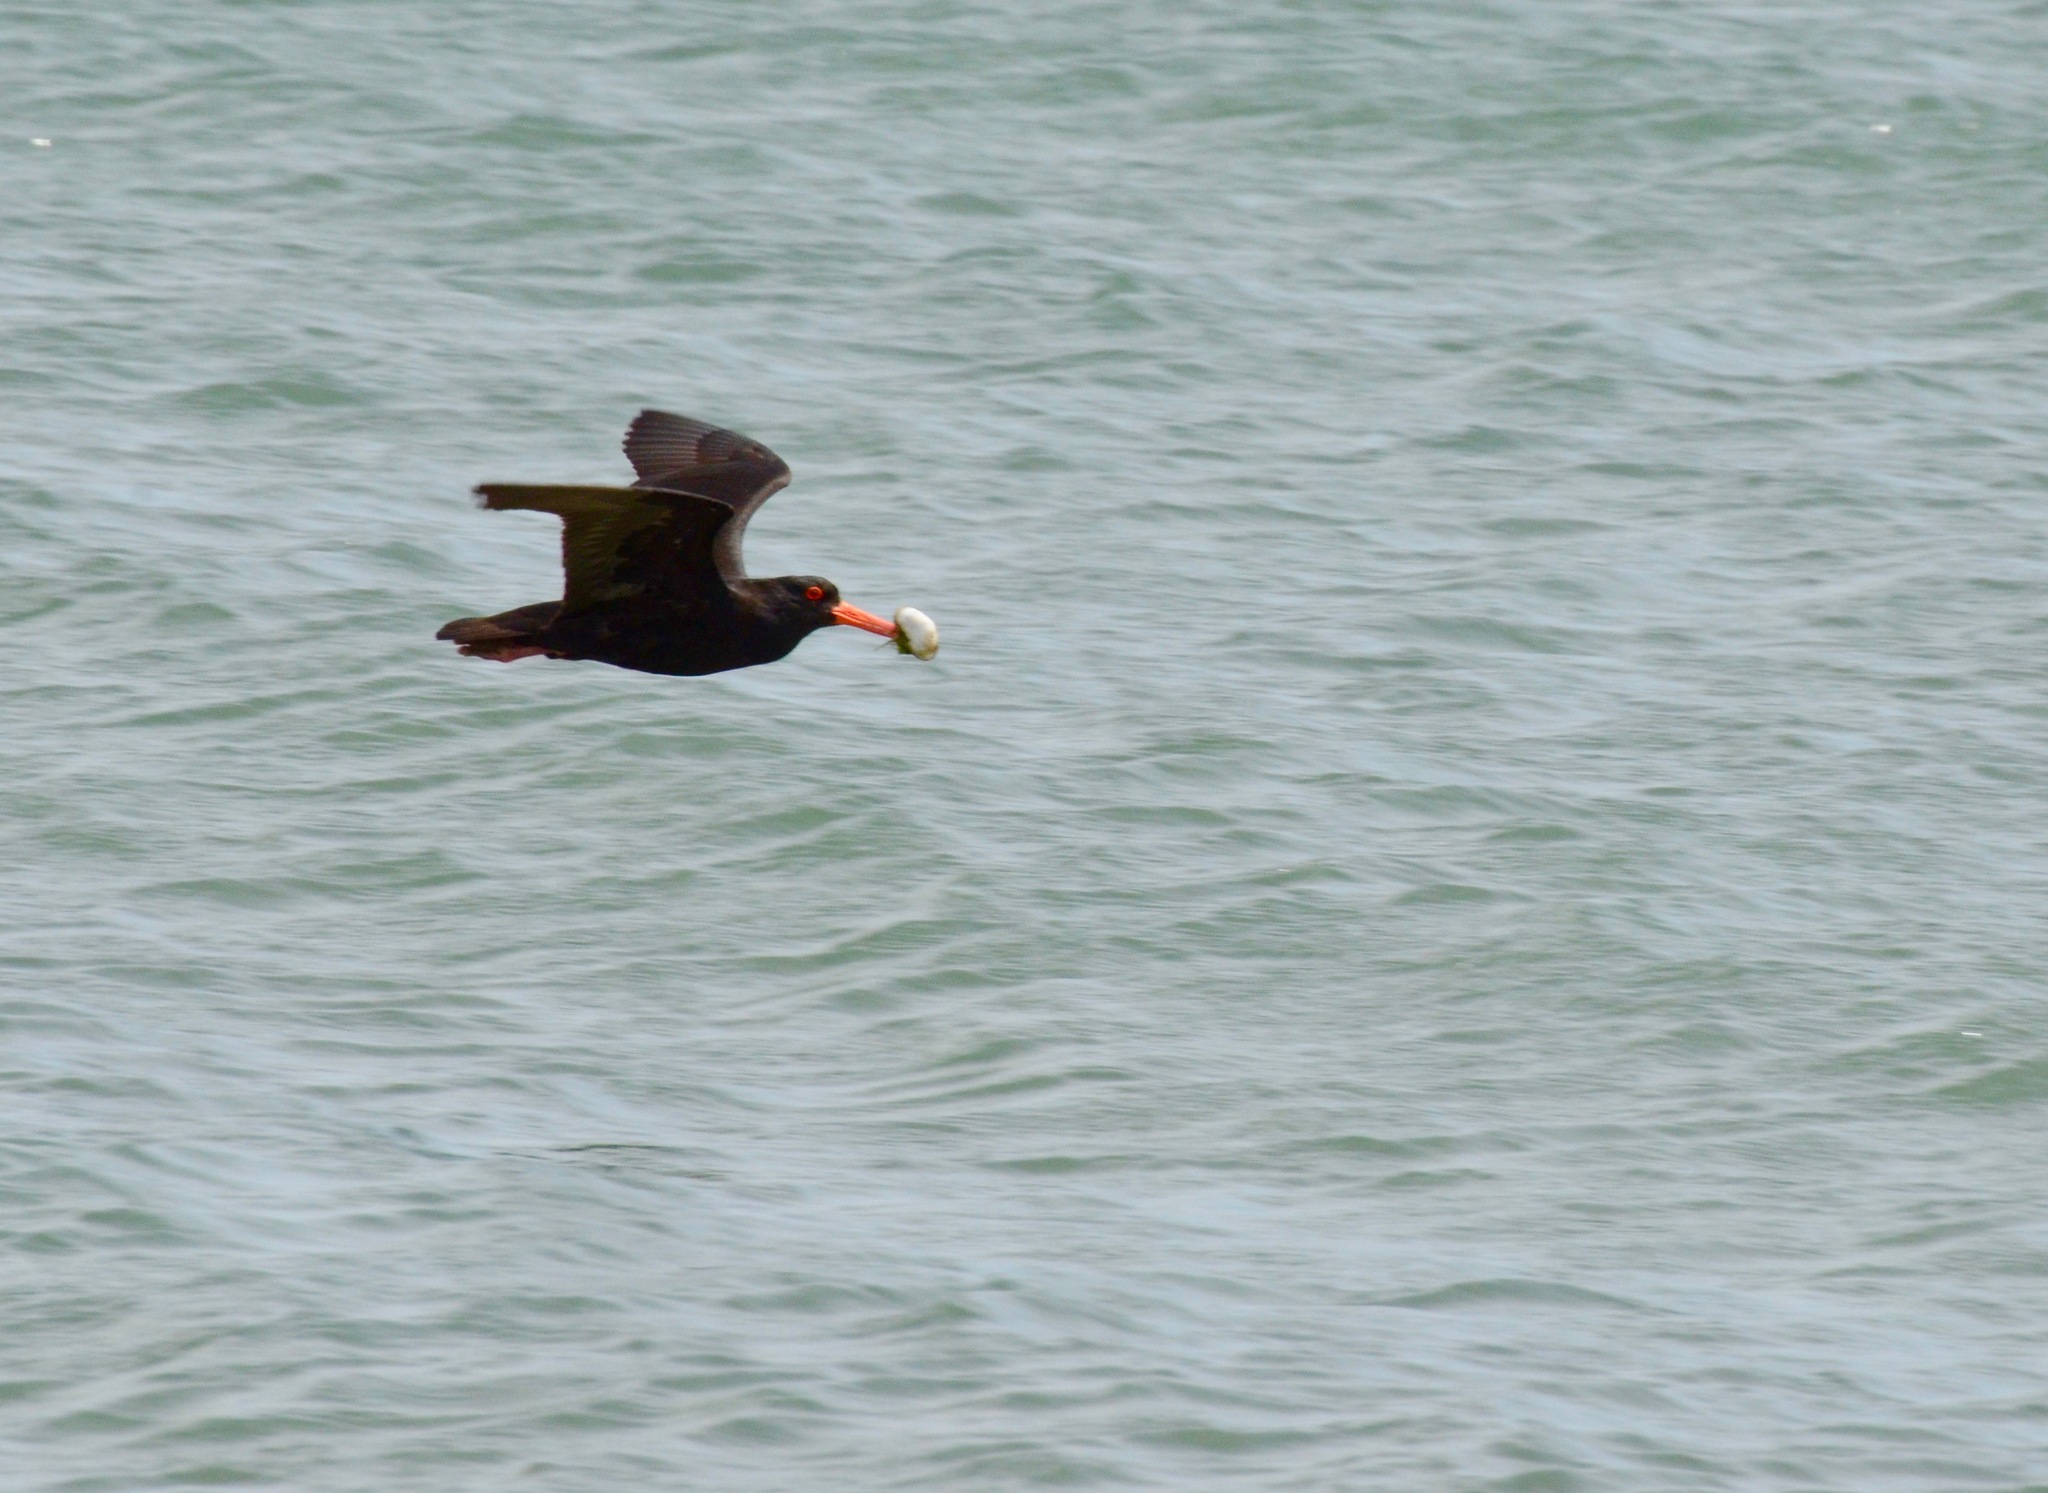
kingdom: Animalia
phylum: Chordata
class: Aves
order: Charadriiformes
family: Haematopodidae
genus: Haematopus
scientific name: Haematopus unicolor
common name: Variable oystercatcher
